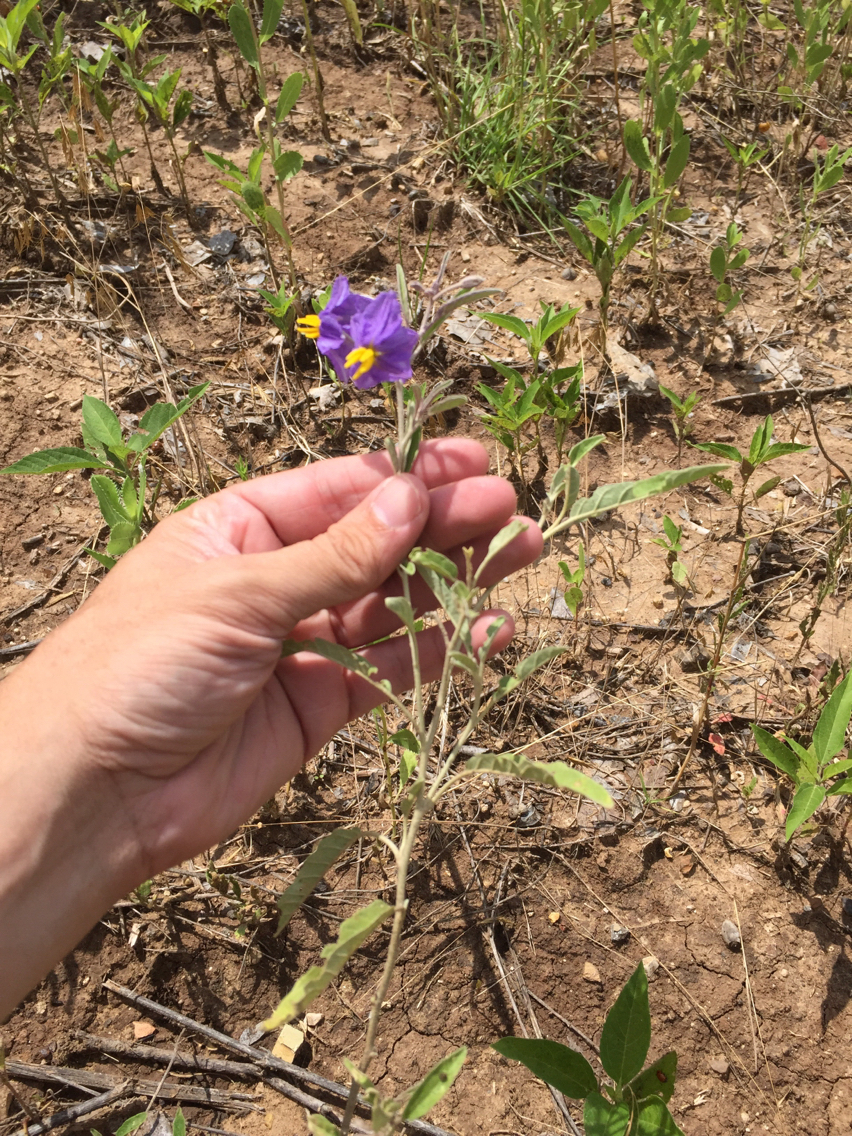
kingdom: Plantae
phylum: Tracheophyta
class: Magnoliopsida
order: Solanales
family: Solanaceae
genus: Solanum
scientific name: Solanum elaeagnifolium
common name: Silverleaf nightshade
